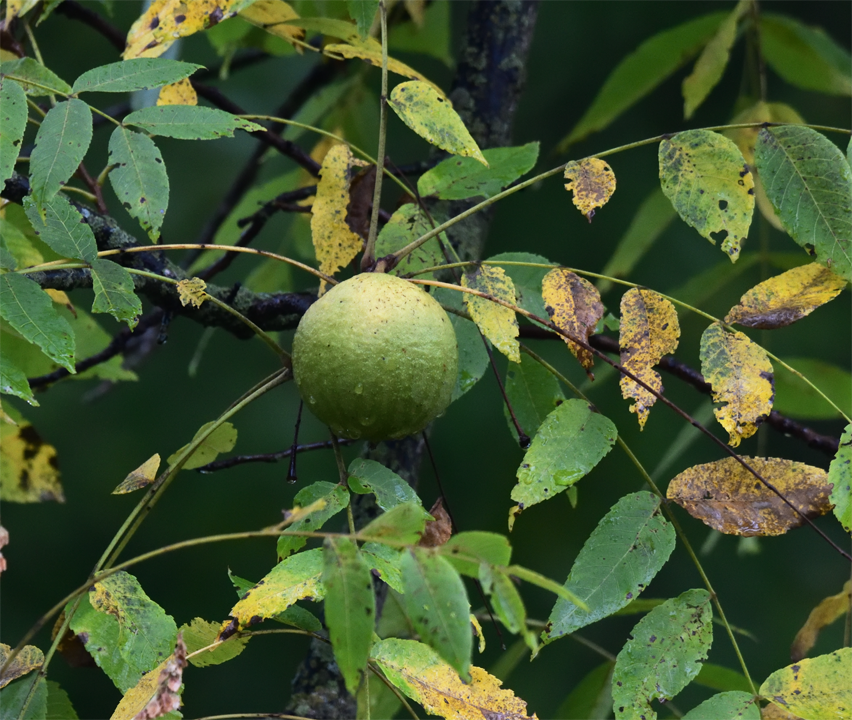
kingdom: Plantae
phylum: Tracheophyta
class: Magnoliopsida
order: Fagales
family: Juglandaceae
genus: Juglans
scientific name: Juglans nigra
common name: Black walnut
